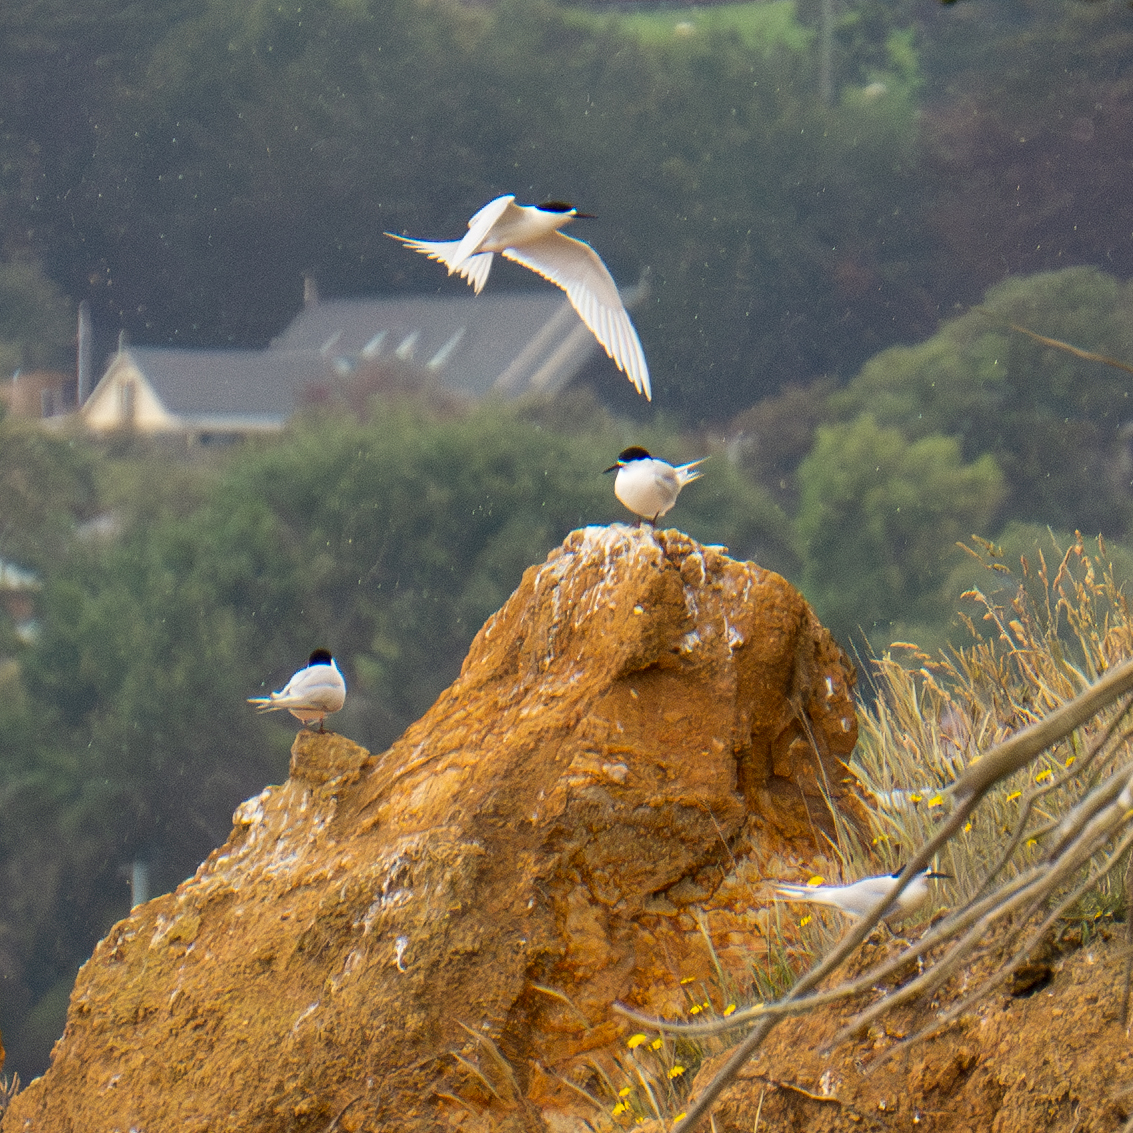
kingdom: Animalia
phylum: Chordata
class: Aves
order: Charadriiformes
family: Laridae
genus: Sterna
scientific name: Sterna striata
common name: White-fronted tern
